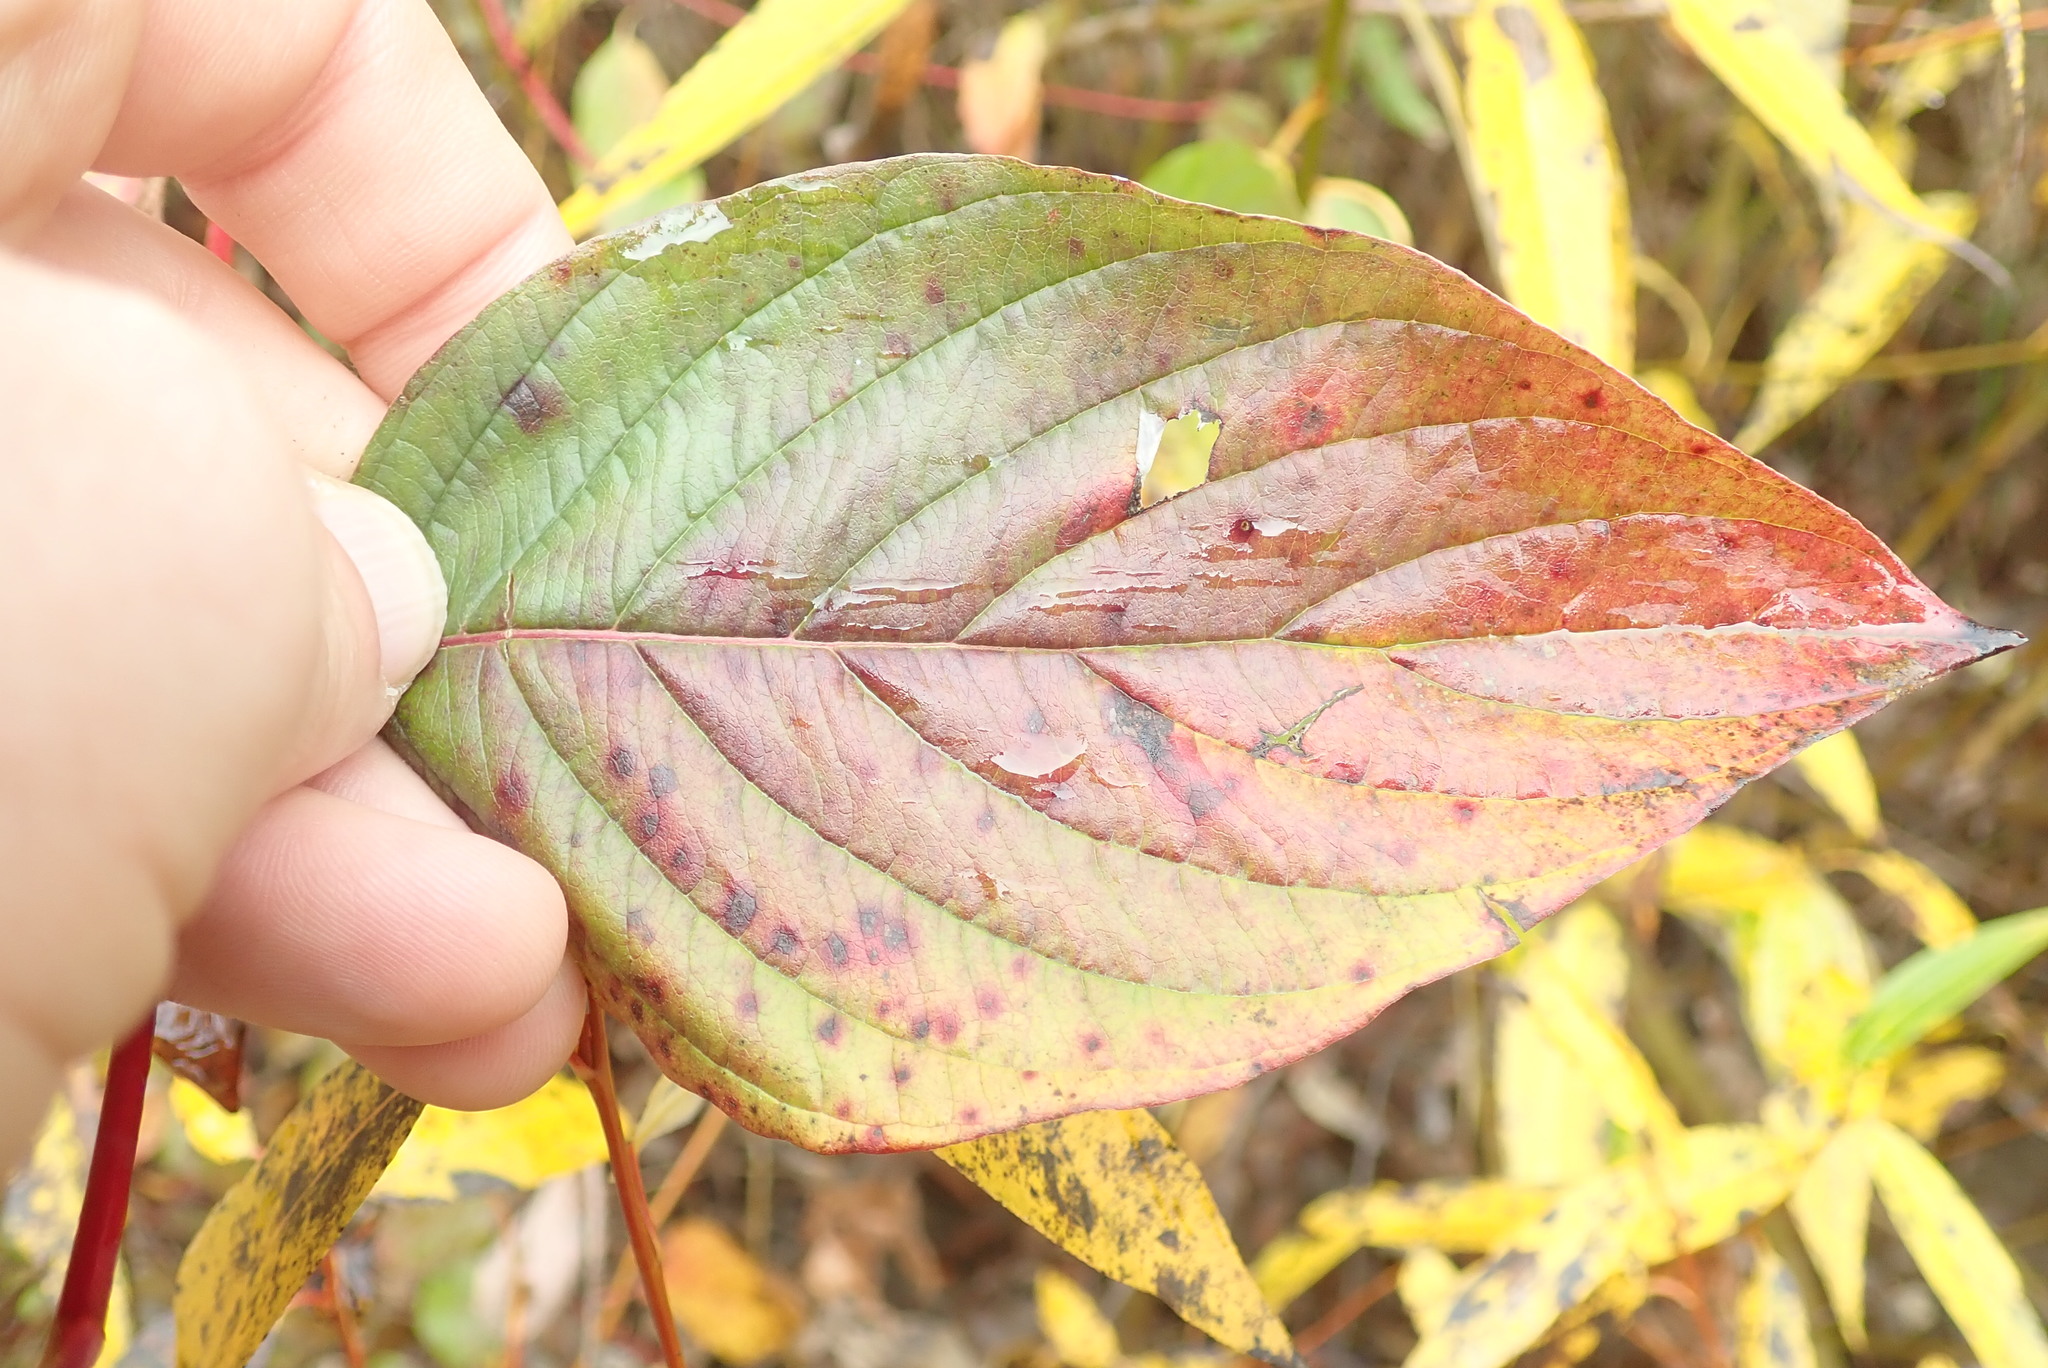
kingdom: Plantae
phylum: Tracheophyta
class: Magnoliopsida
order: Cornales
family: Cornaceae
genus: Cornus
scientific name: Cornus sericea
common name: Red-osier dogwood
